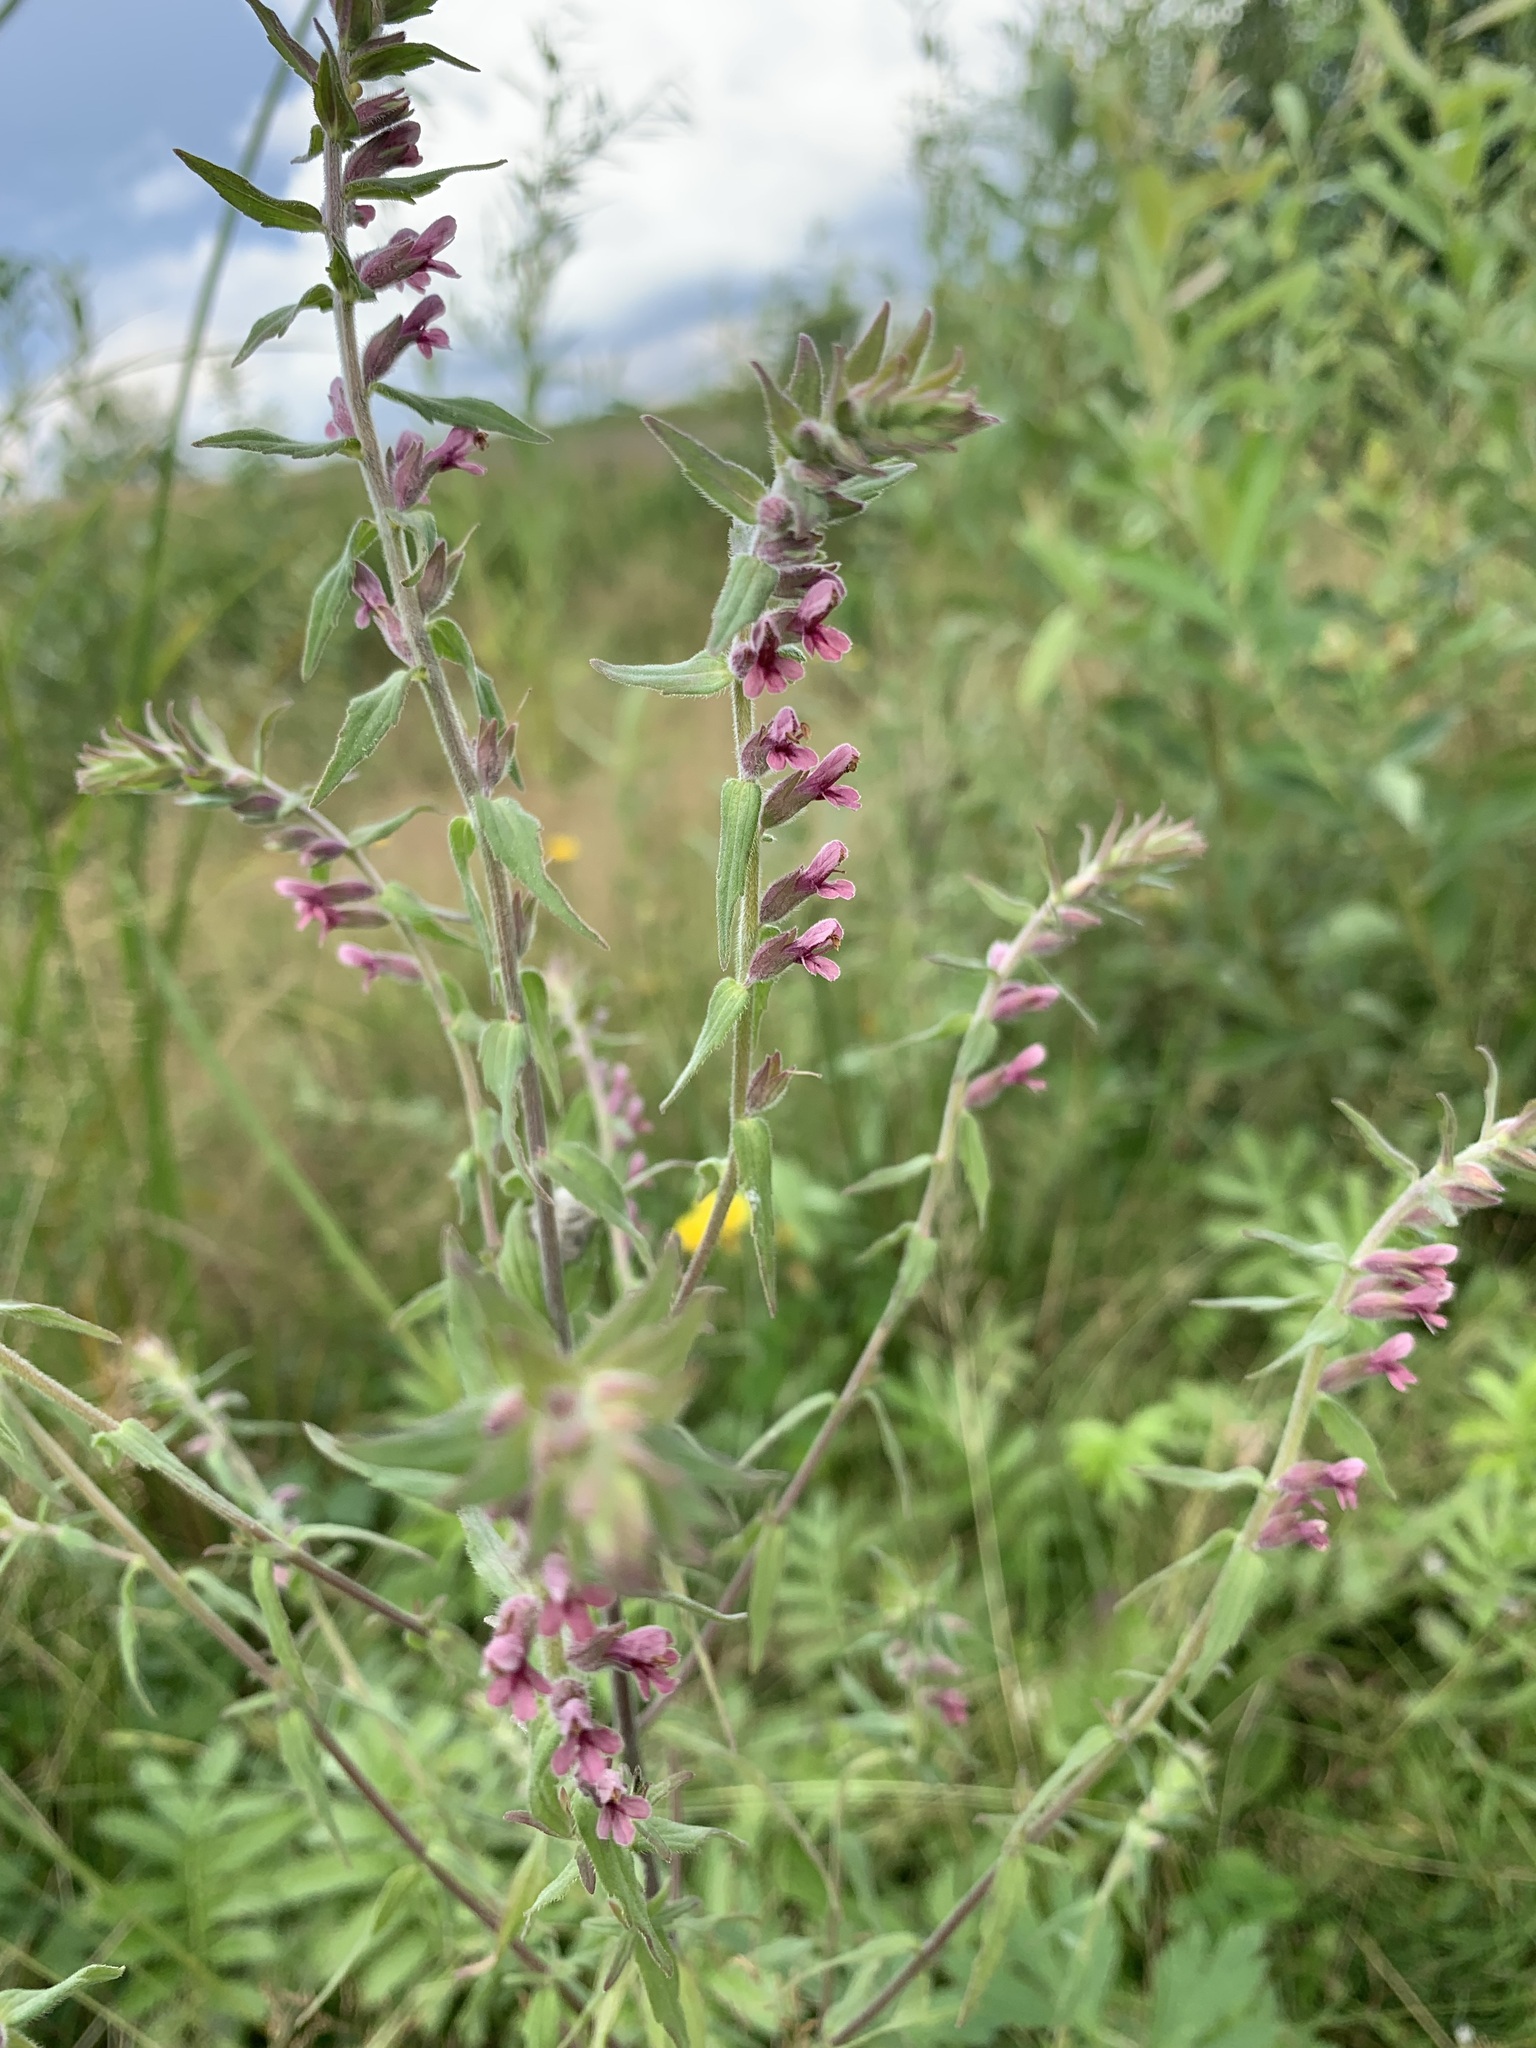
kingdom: Plantae
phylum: Tracheophyta
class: Magnoliopsida
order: Lamiales
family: Orobanchaceae
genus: Odontites
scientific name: Odontites vulgaris
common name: Broomrape
